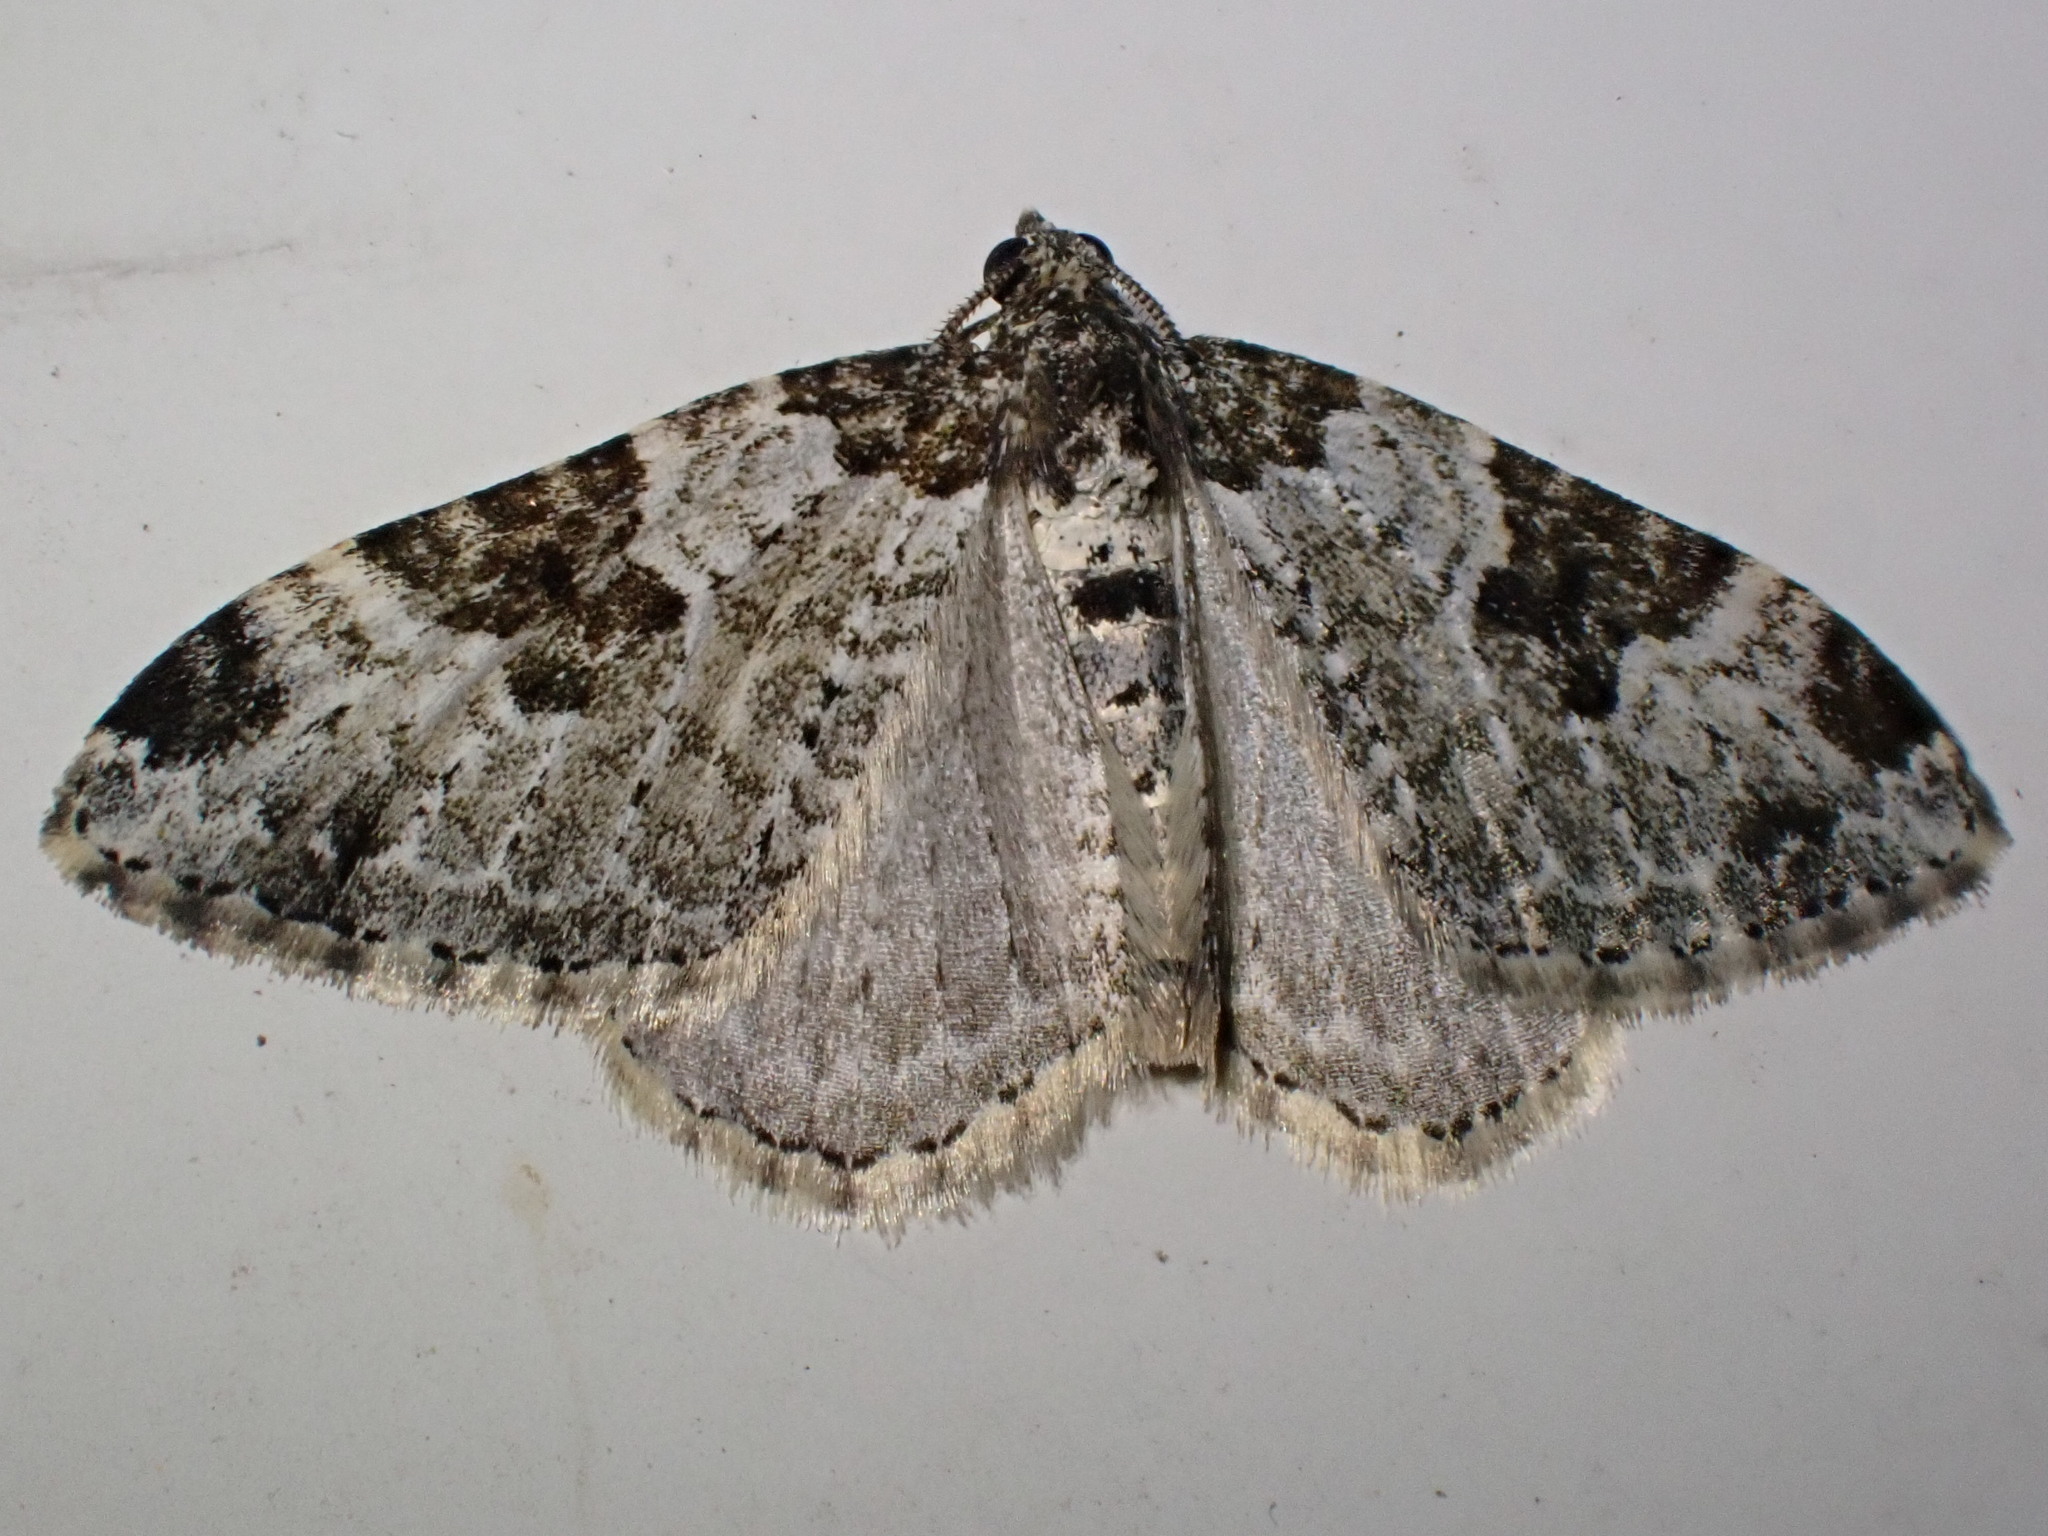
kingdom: Animalia
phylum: Arthropoda
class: Insecta
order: Lepidoptera
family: Geometridae
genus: Xanthorhoe
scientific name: Xanthorhoe fluctuata
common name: Garden carpet
